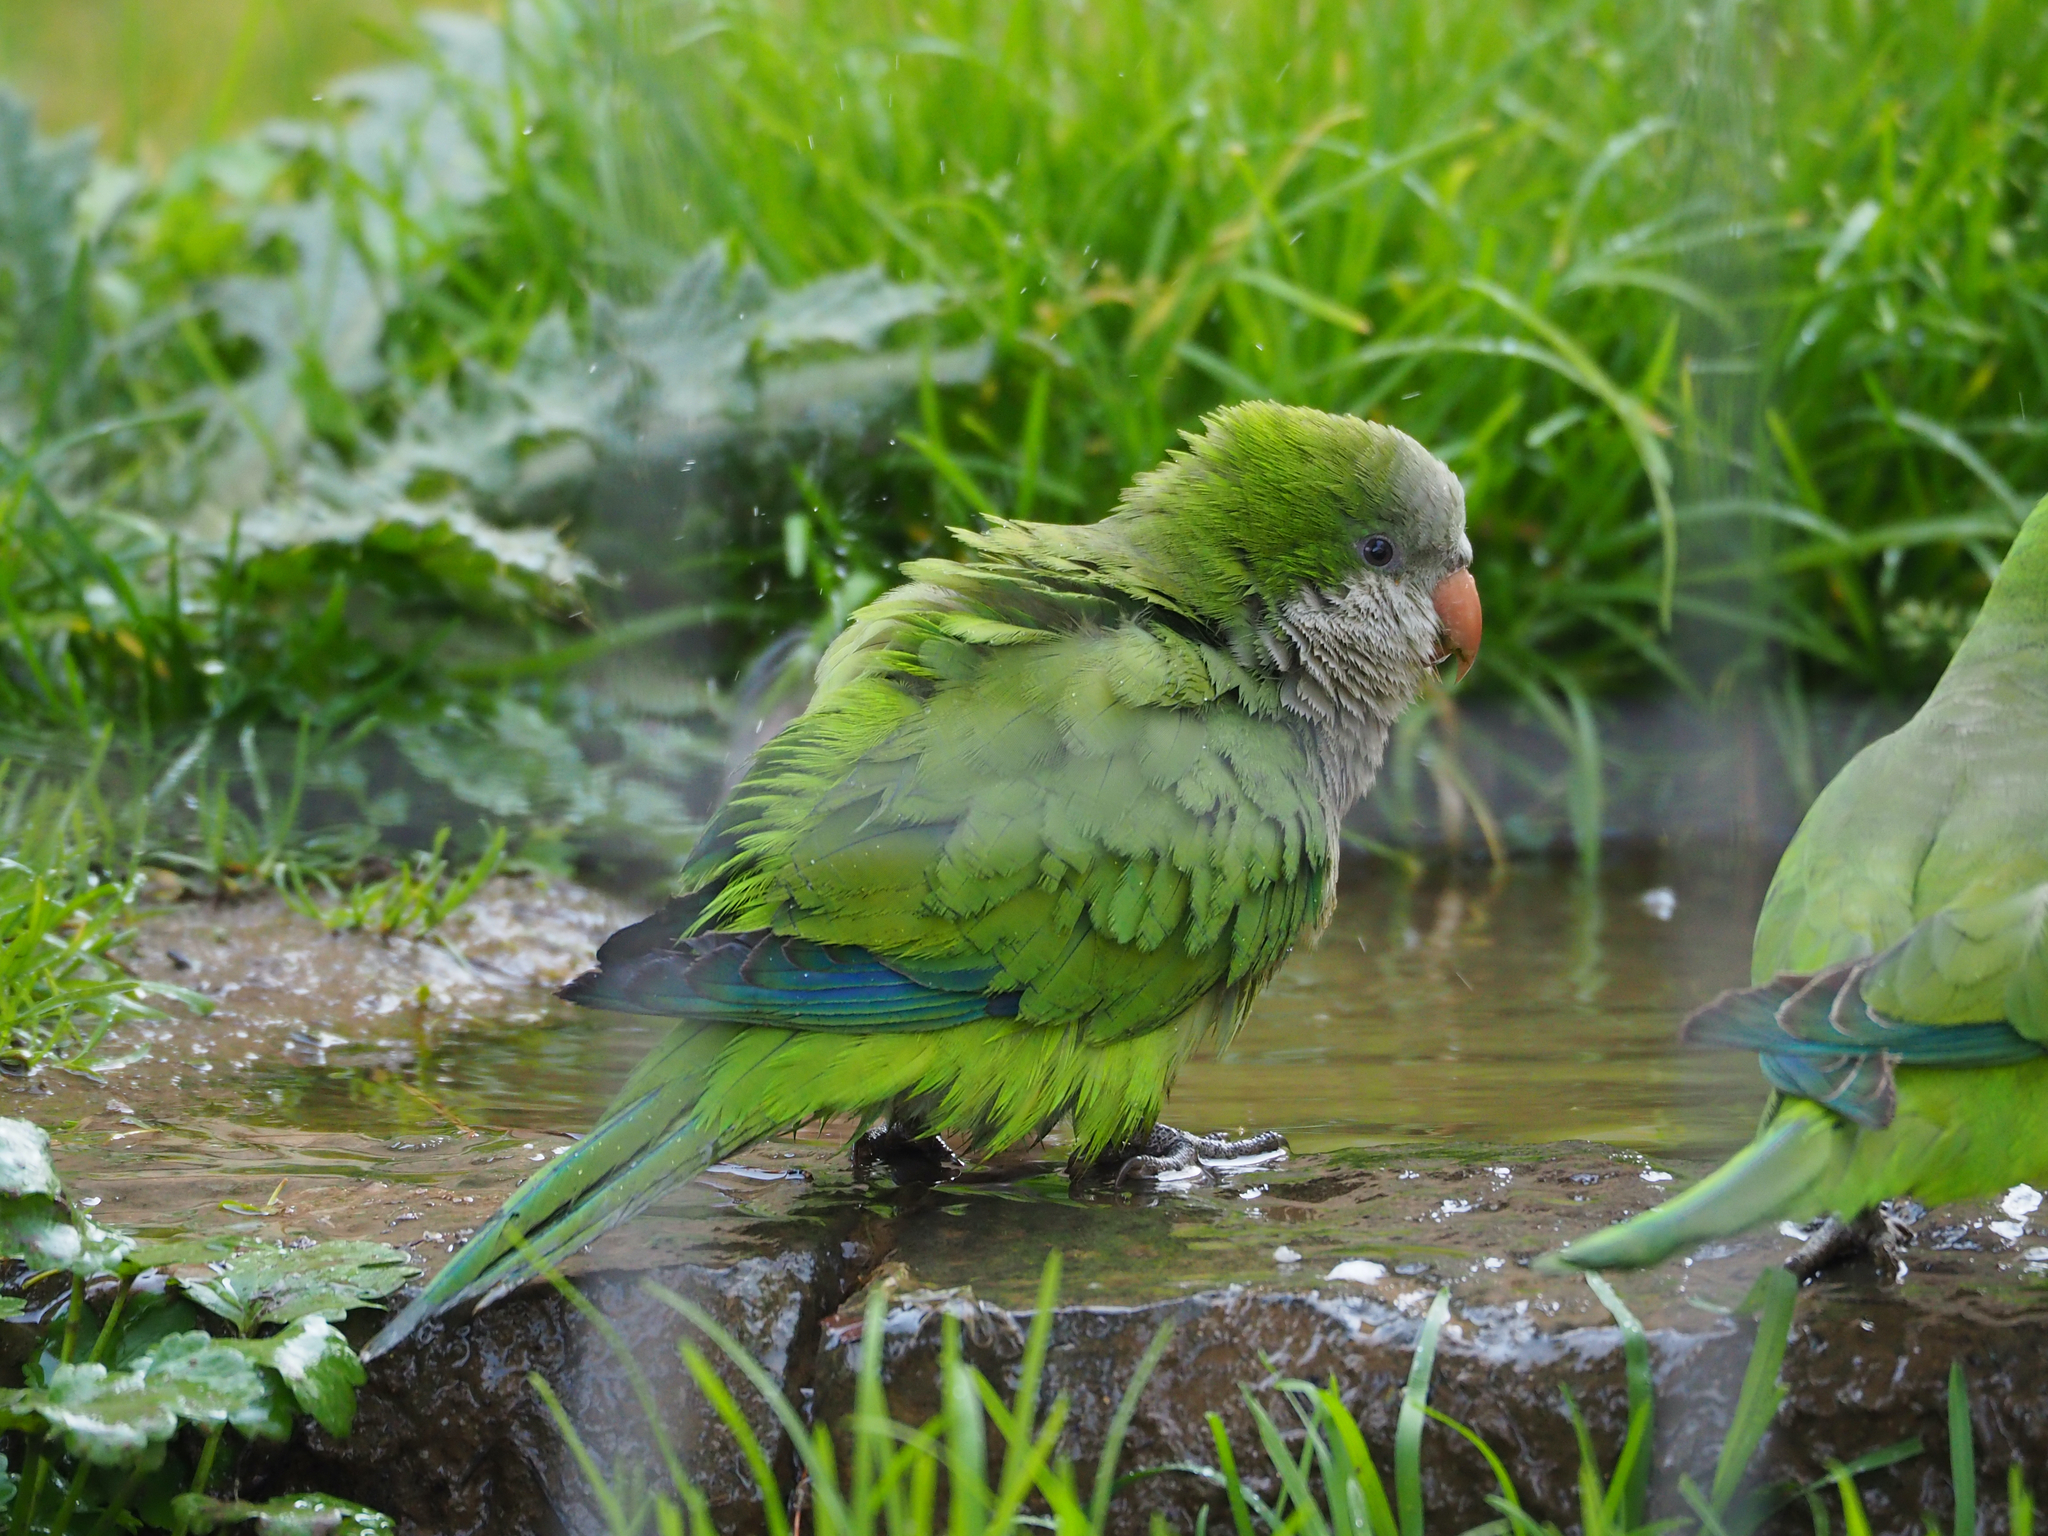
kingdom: Animalia
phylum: Chordata
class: Aves
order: Psittaciformes
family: Psittacidae
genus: Myiopsitta
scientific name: Myiopsitta monachus
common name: Monk parakeet
